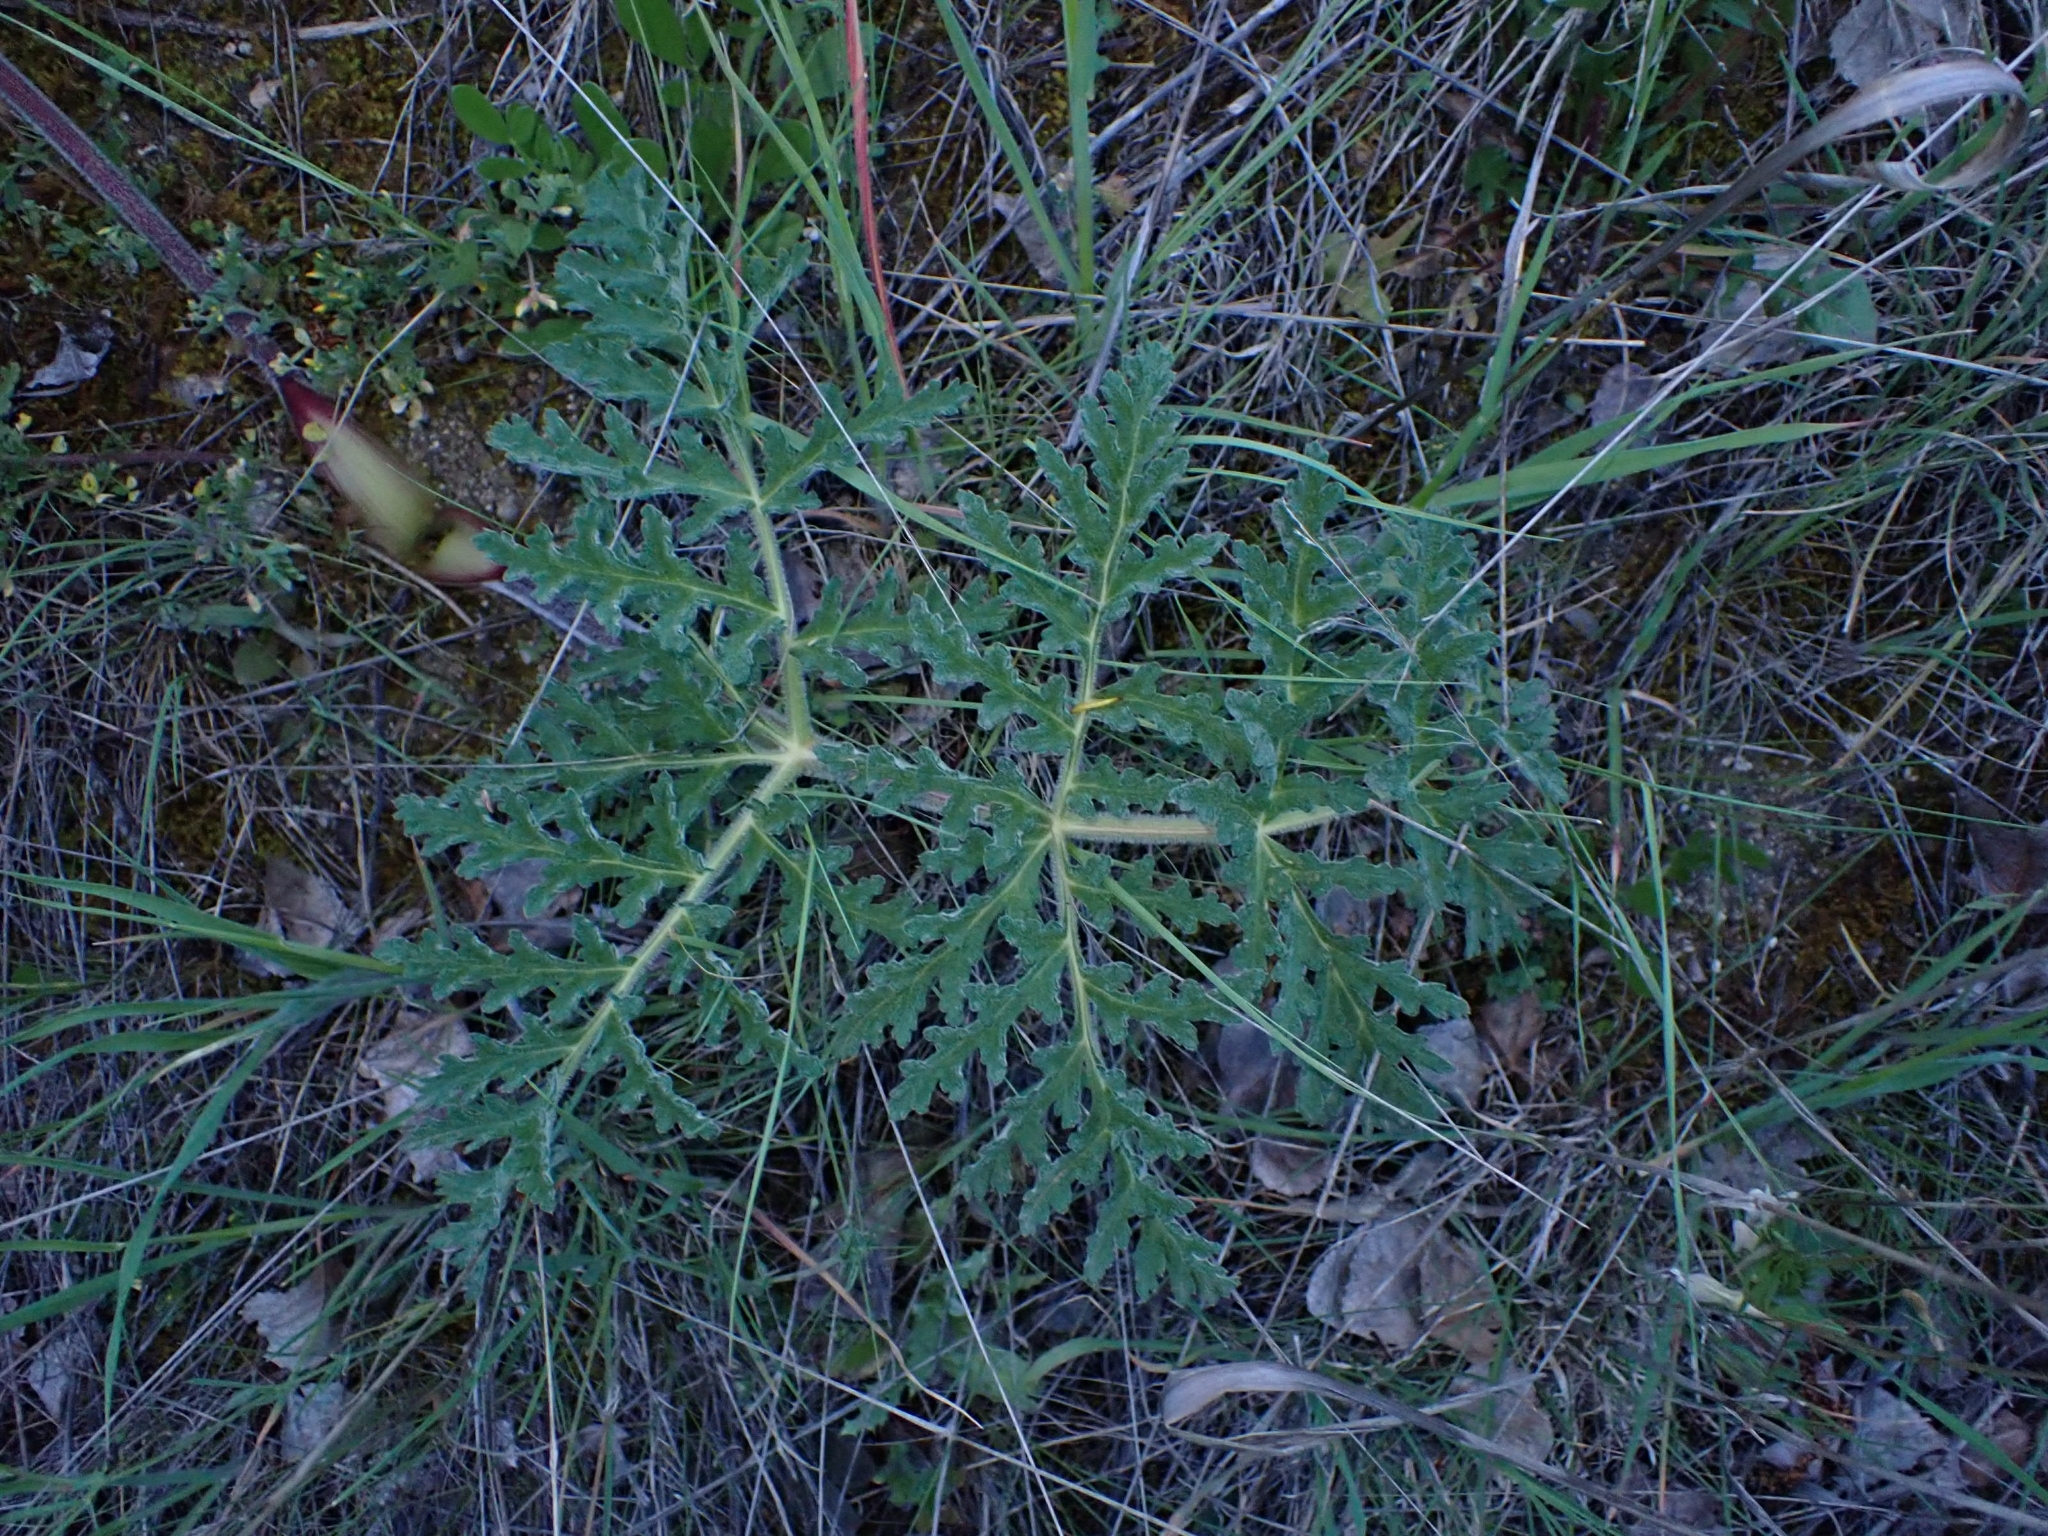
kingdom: Plantae
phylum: Tracheophyta
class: Magnoliopsida
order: Apiales
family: Apiaceae
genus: Thapsia
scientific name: Thapsia villosa
